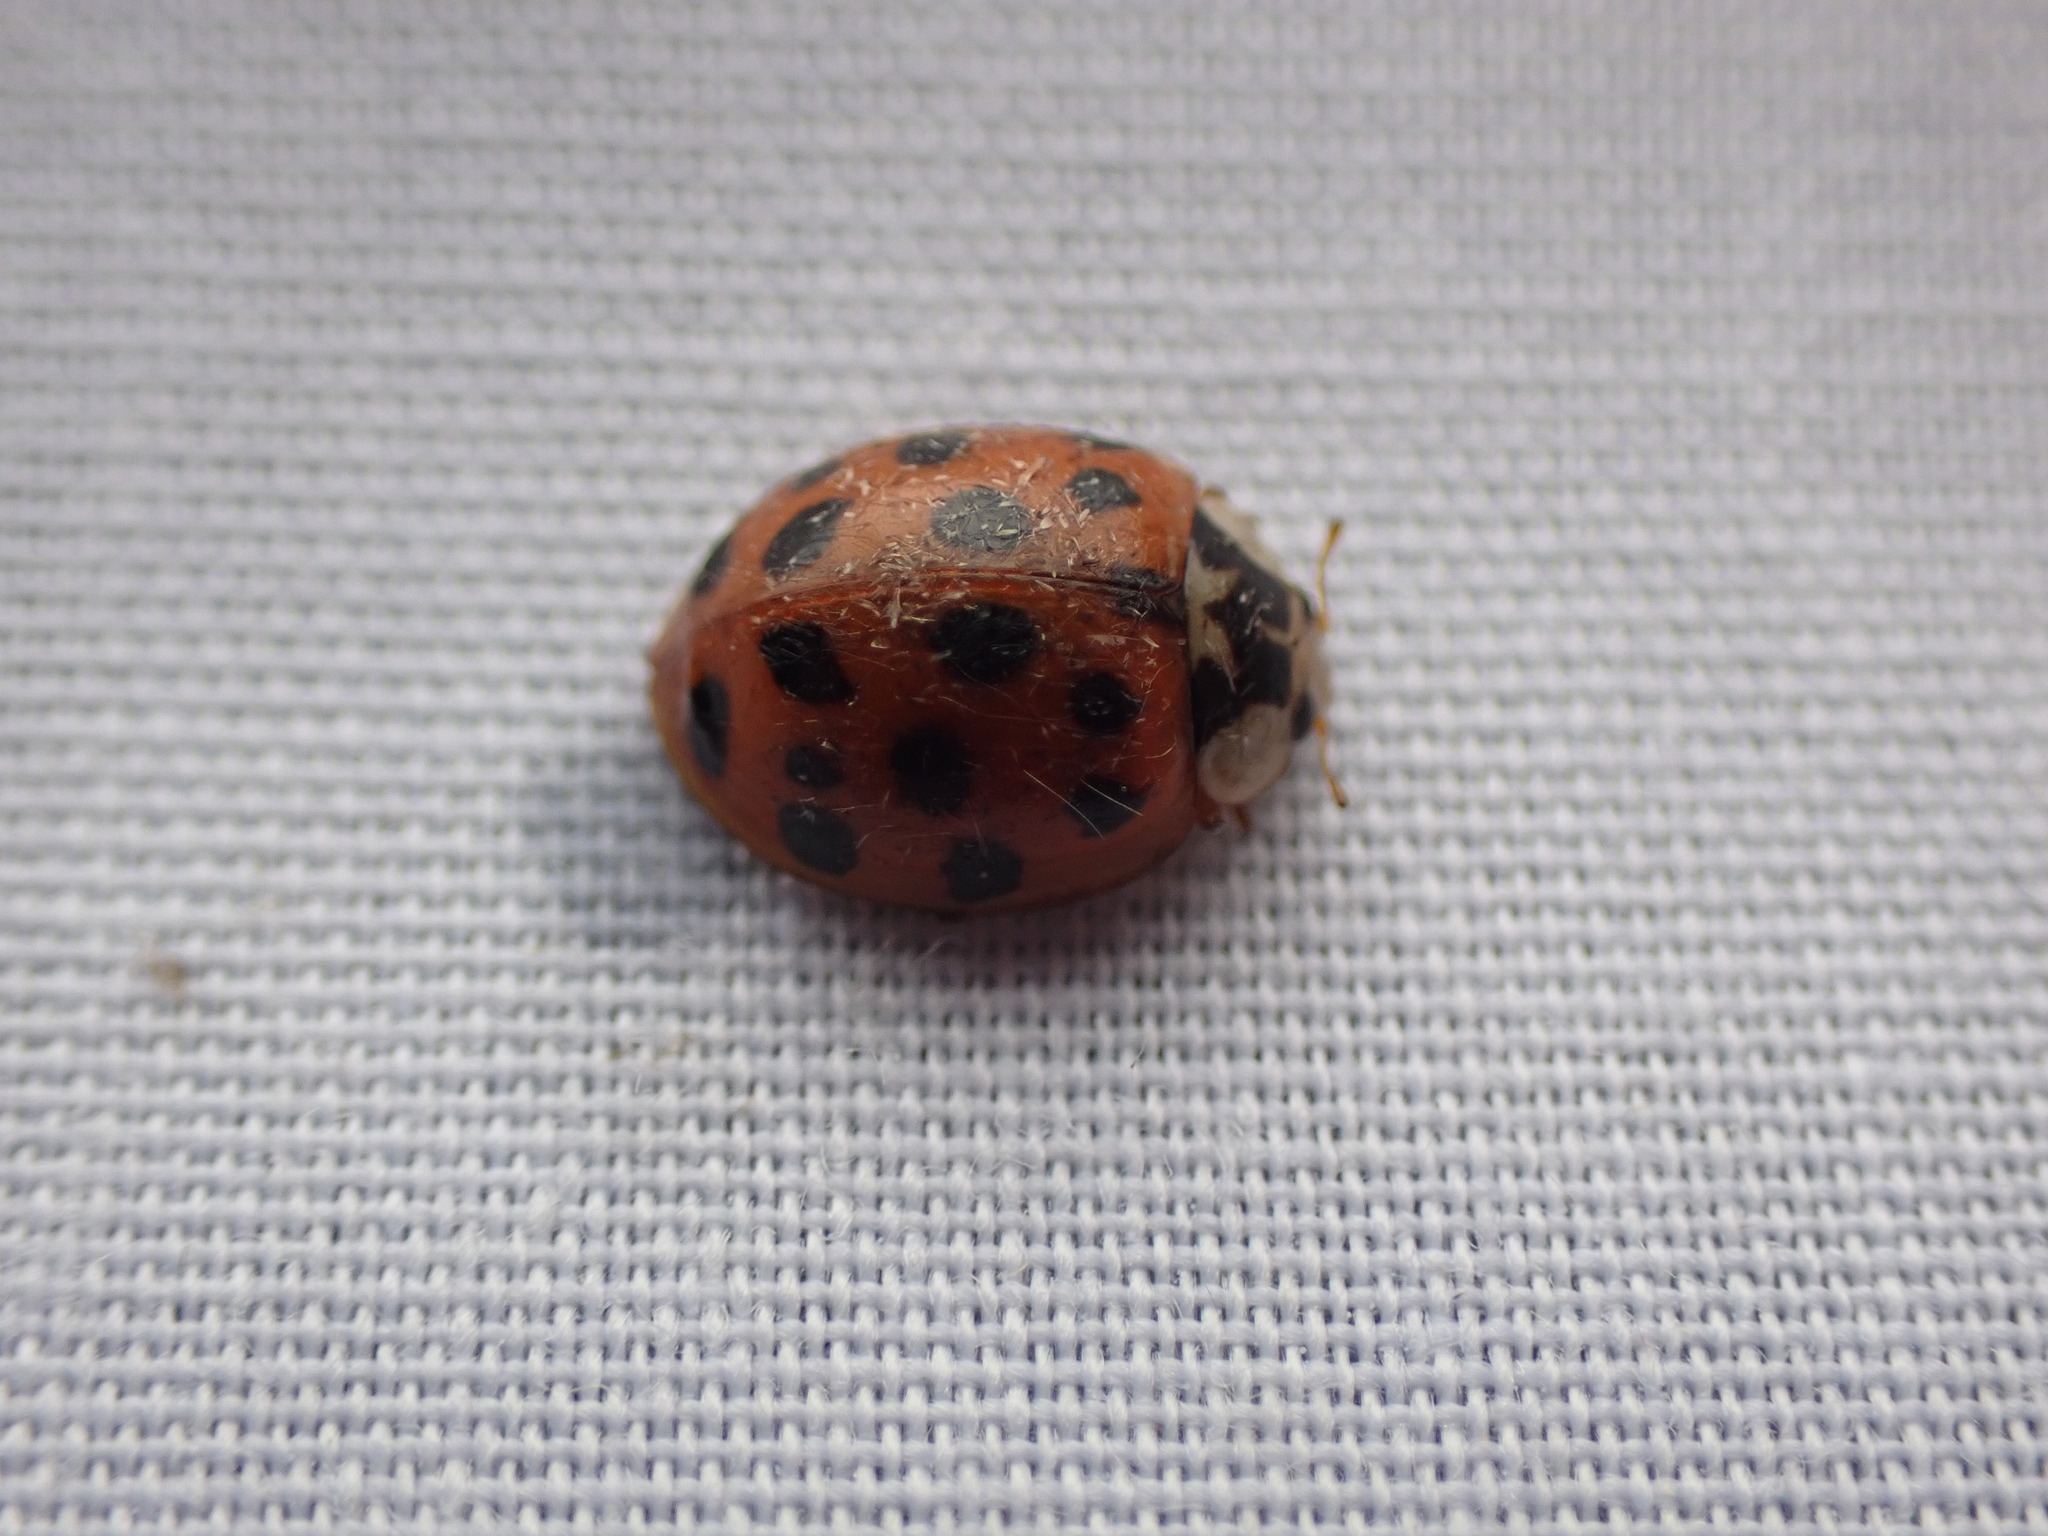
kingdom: Animalia
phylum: Arthropoda
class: Insecta
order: Coleoptera
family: Coccinellidae
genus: Harmonia
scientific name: Harmonia axyridis
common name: Harlequin ladybird
